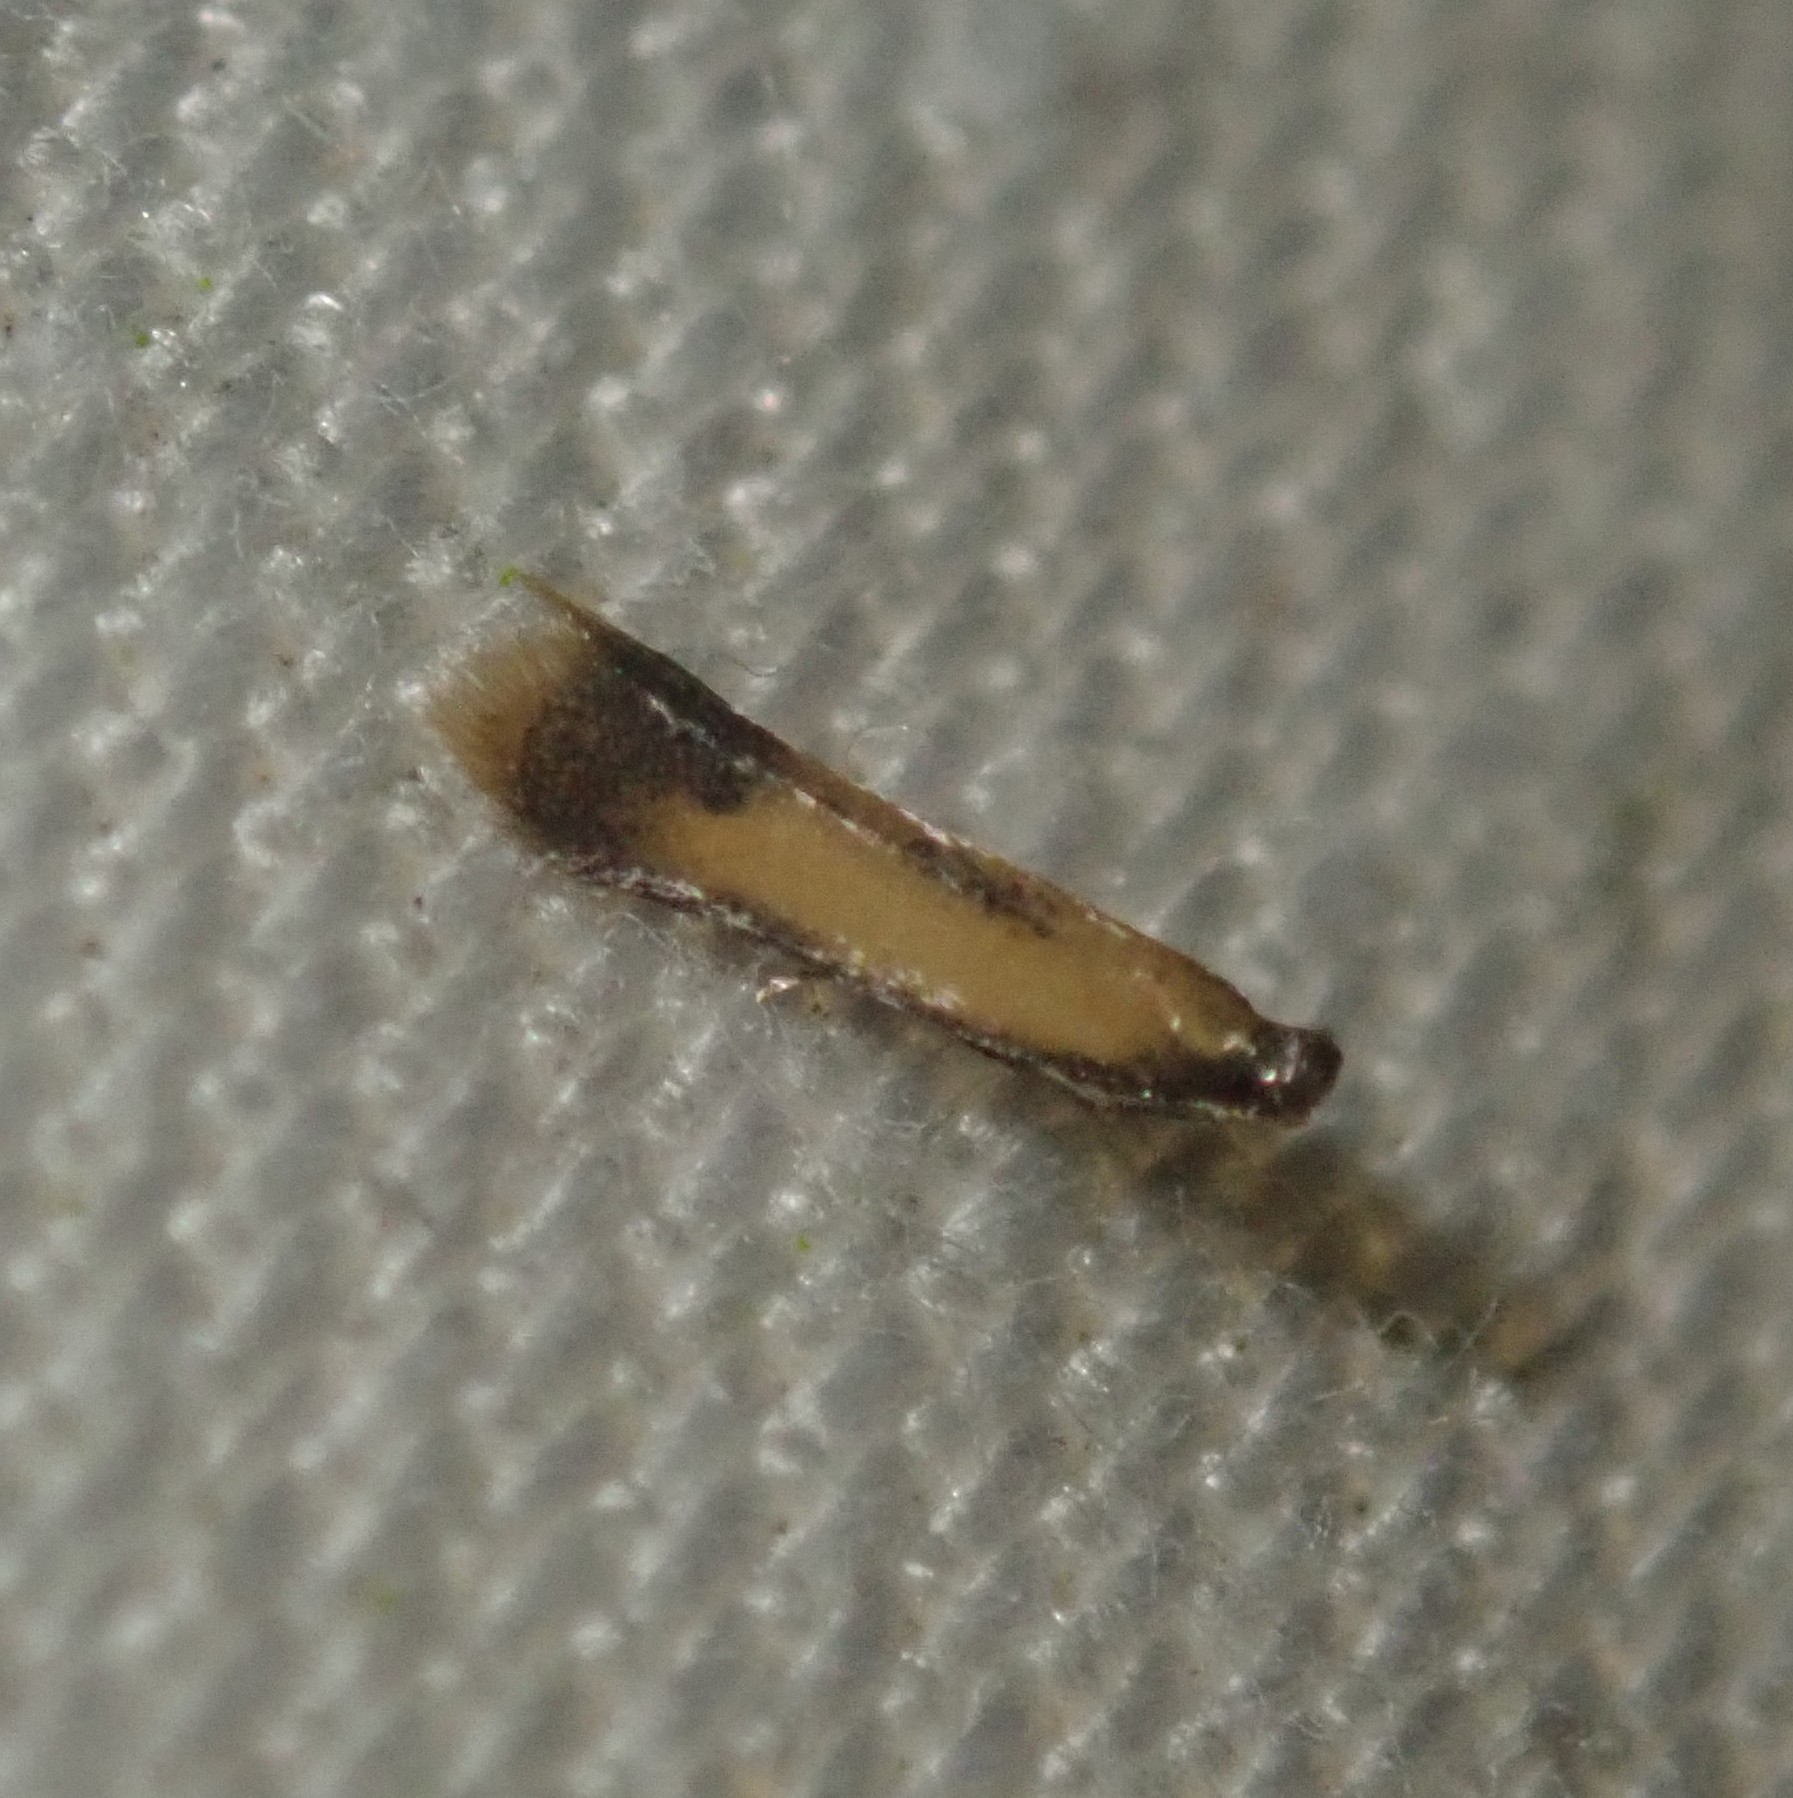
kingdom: Animalia
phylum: Arthropoda
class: Insecta
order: Lepidoptera
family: Tischeriidae
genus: Coptotriche
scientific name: Coptotriche marginea
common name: Bordered carl
